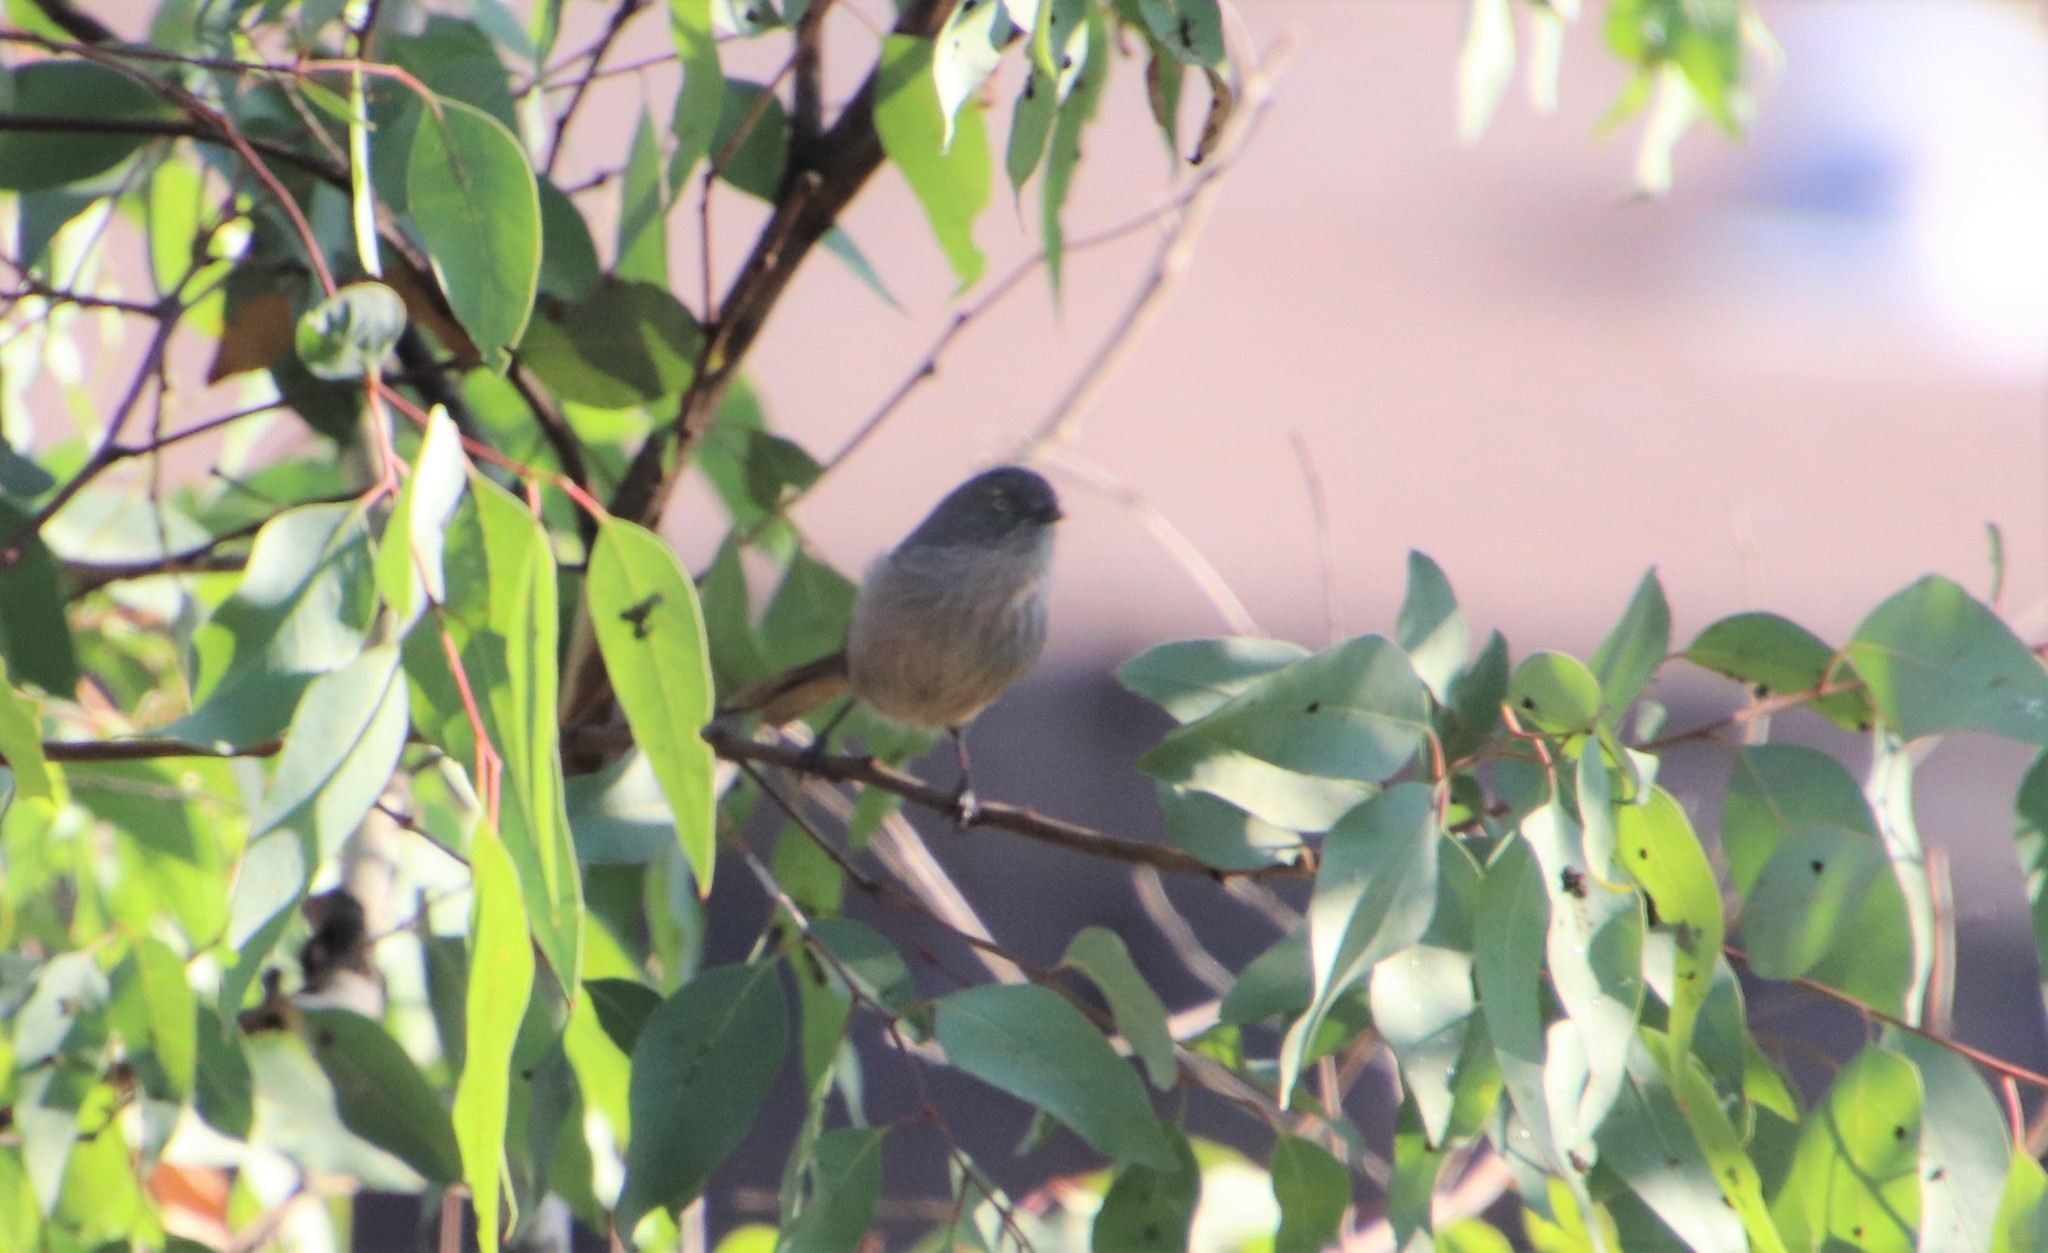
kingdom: Animalia
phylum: Chordata
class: Aves
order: Passeriformes
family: Sylviidae
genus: Chamaea
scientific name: Chamaea fasciata
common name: Wrentit
